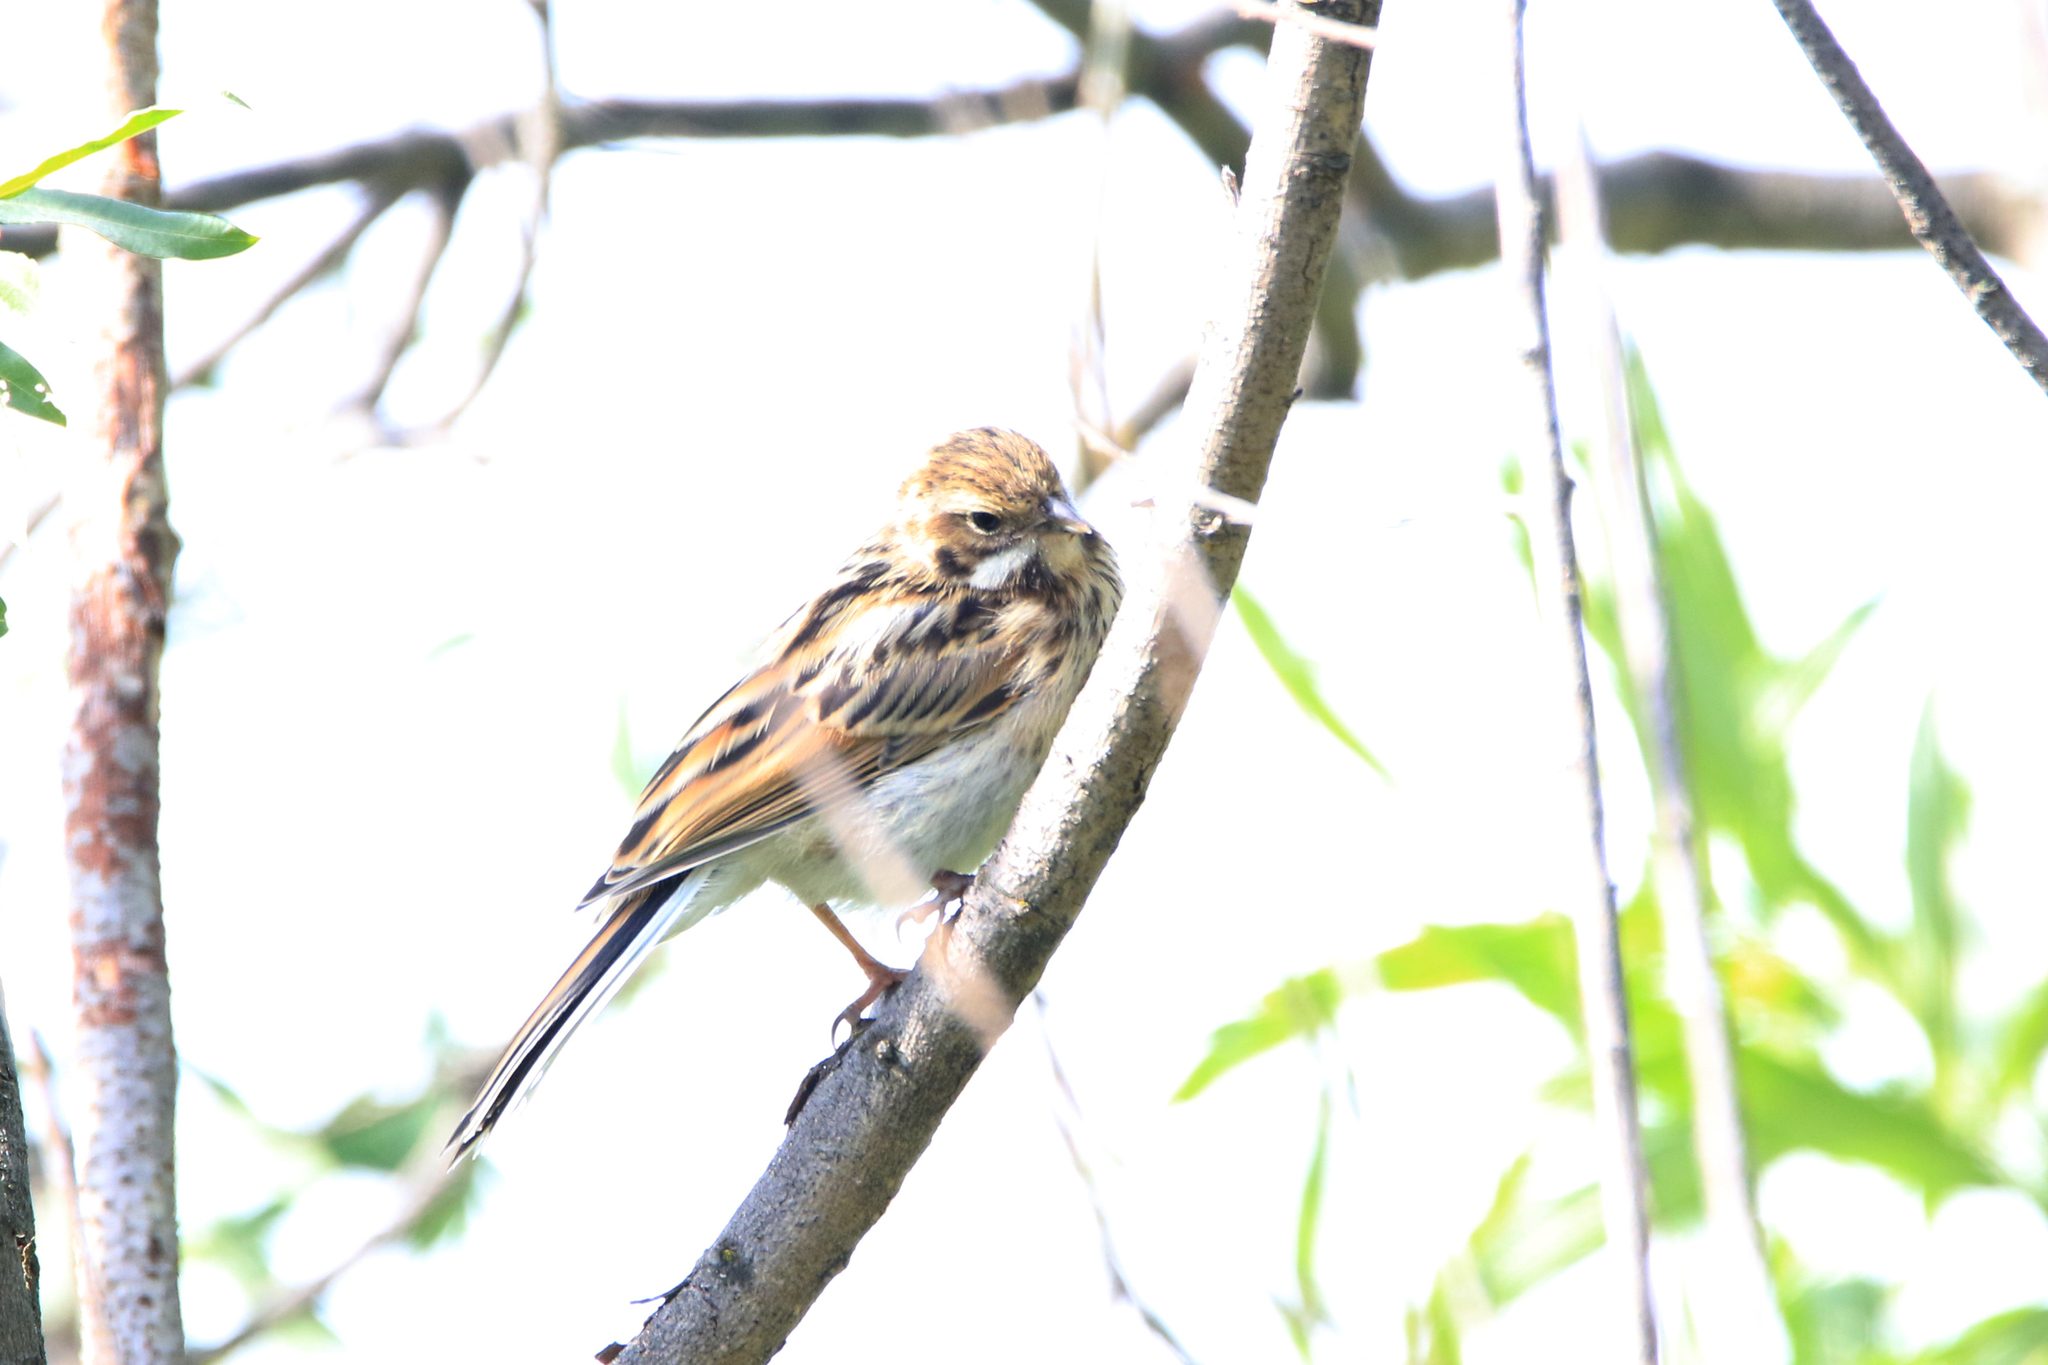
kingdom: Animalia
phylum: Chordata
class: Aves
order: Passeriformes
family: Emberizidae
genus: Emberiza
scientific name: Emberiza schoeniclus
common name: Reed bunting
